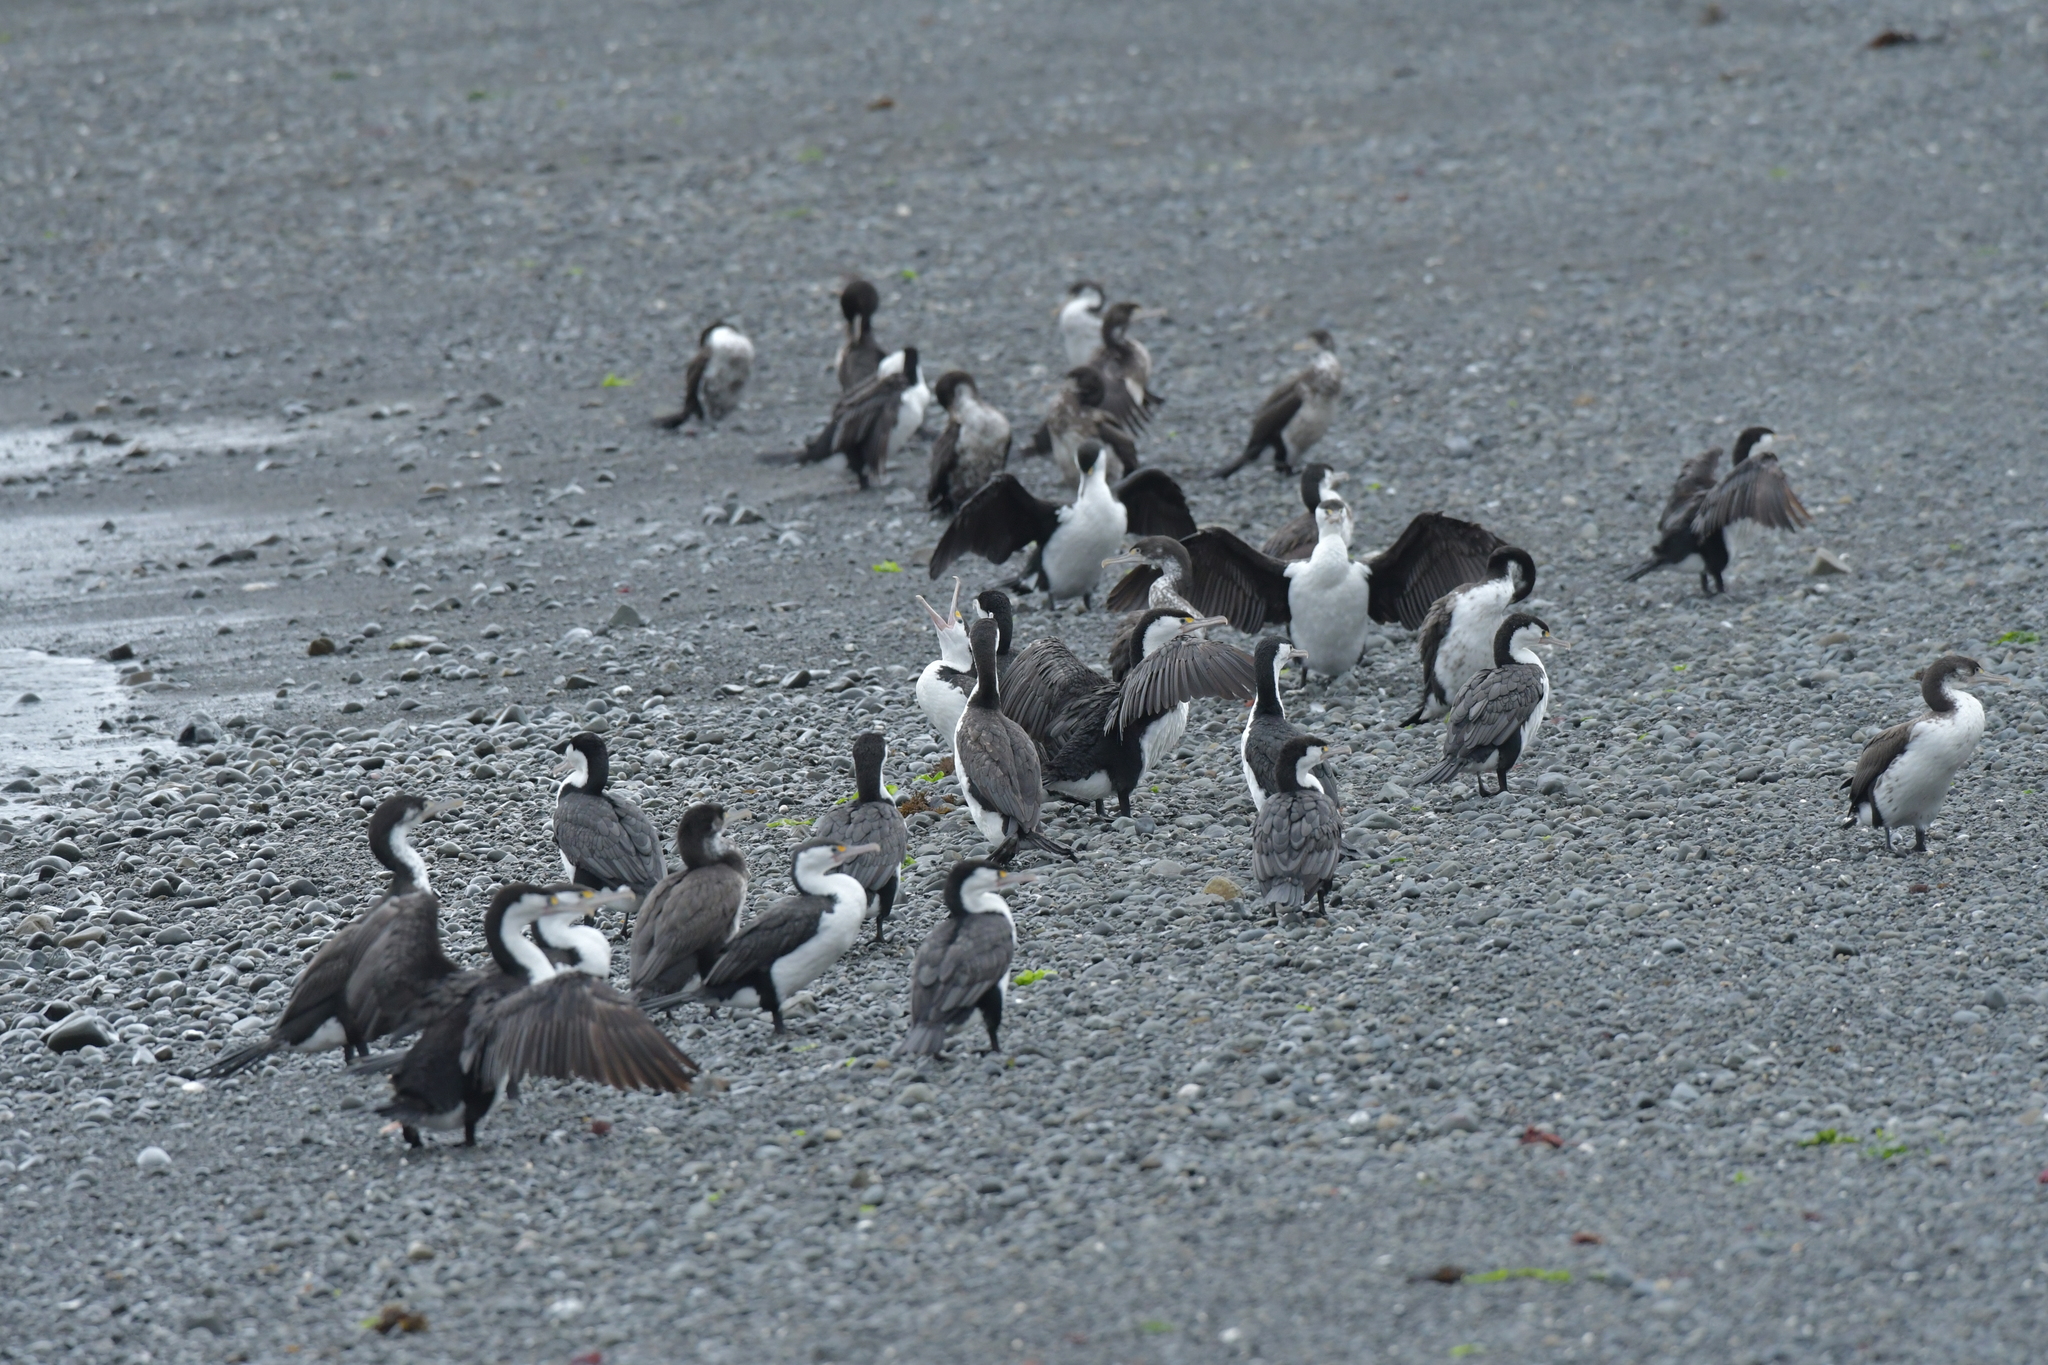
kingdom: Animalia
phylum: Chordata
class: Aves
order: Suliformes
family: Phalacrocoracidae
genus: Phalacrocorax
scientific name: Phalacrocorax varius
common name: Pied cormorant
